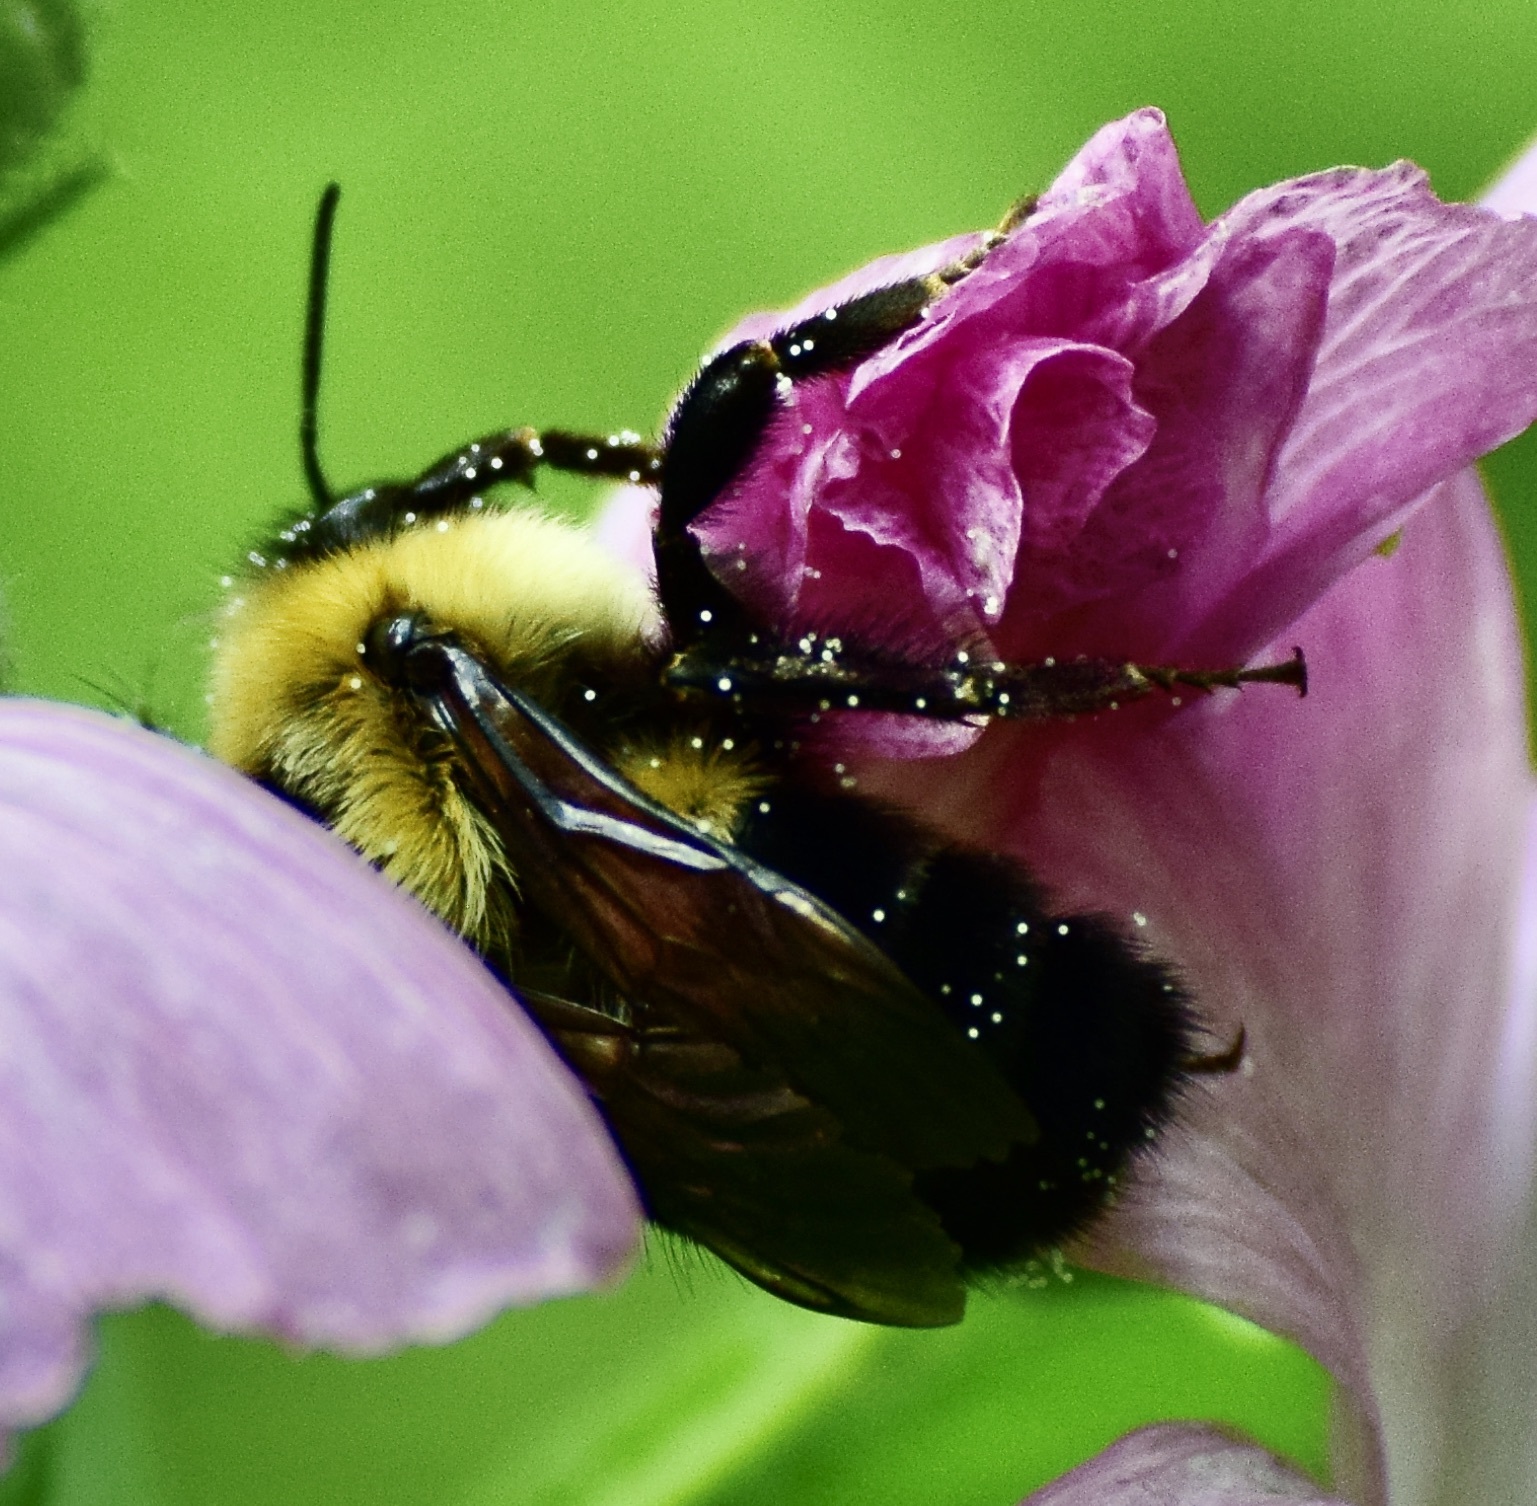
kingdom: Animalia
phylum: Arthropoda
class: Insecta
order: Hymenoptera
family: Apidae
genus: Bombus
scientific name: Bombus bimaculatus
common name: Two-spotted bumble bee
